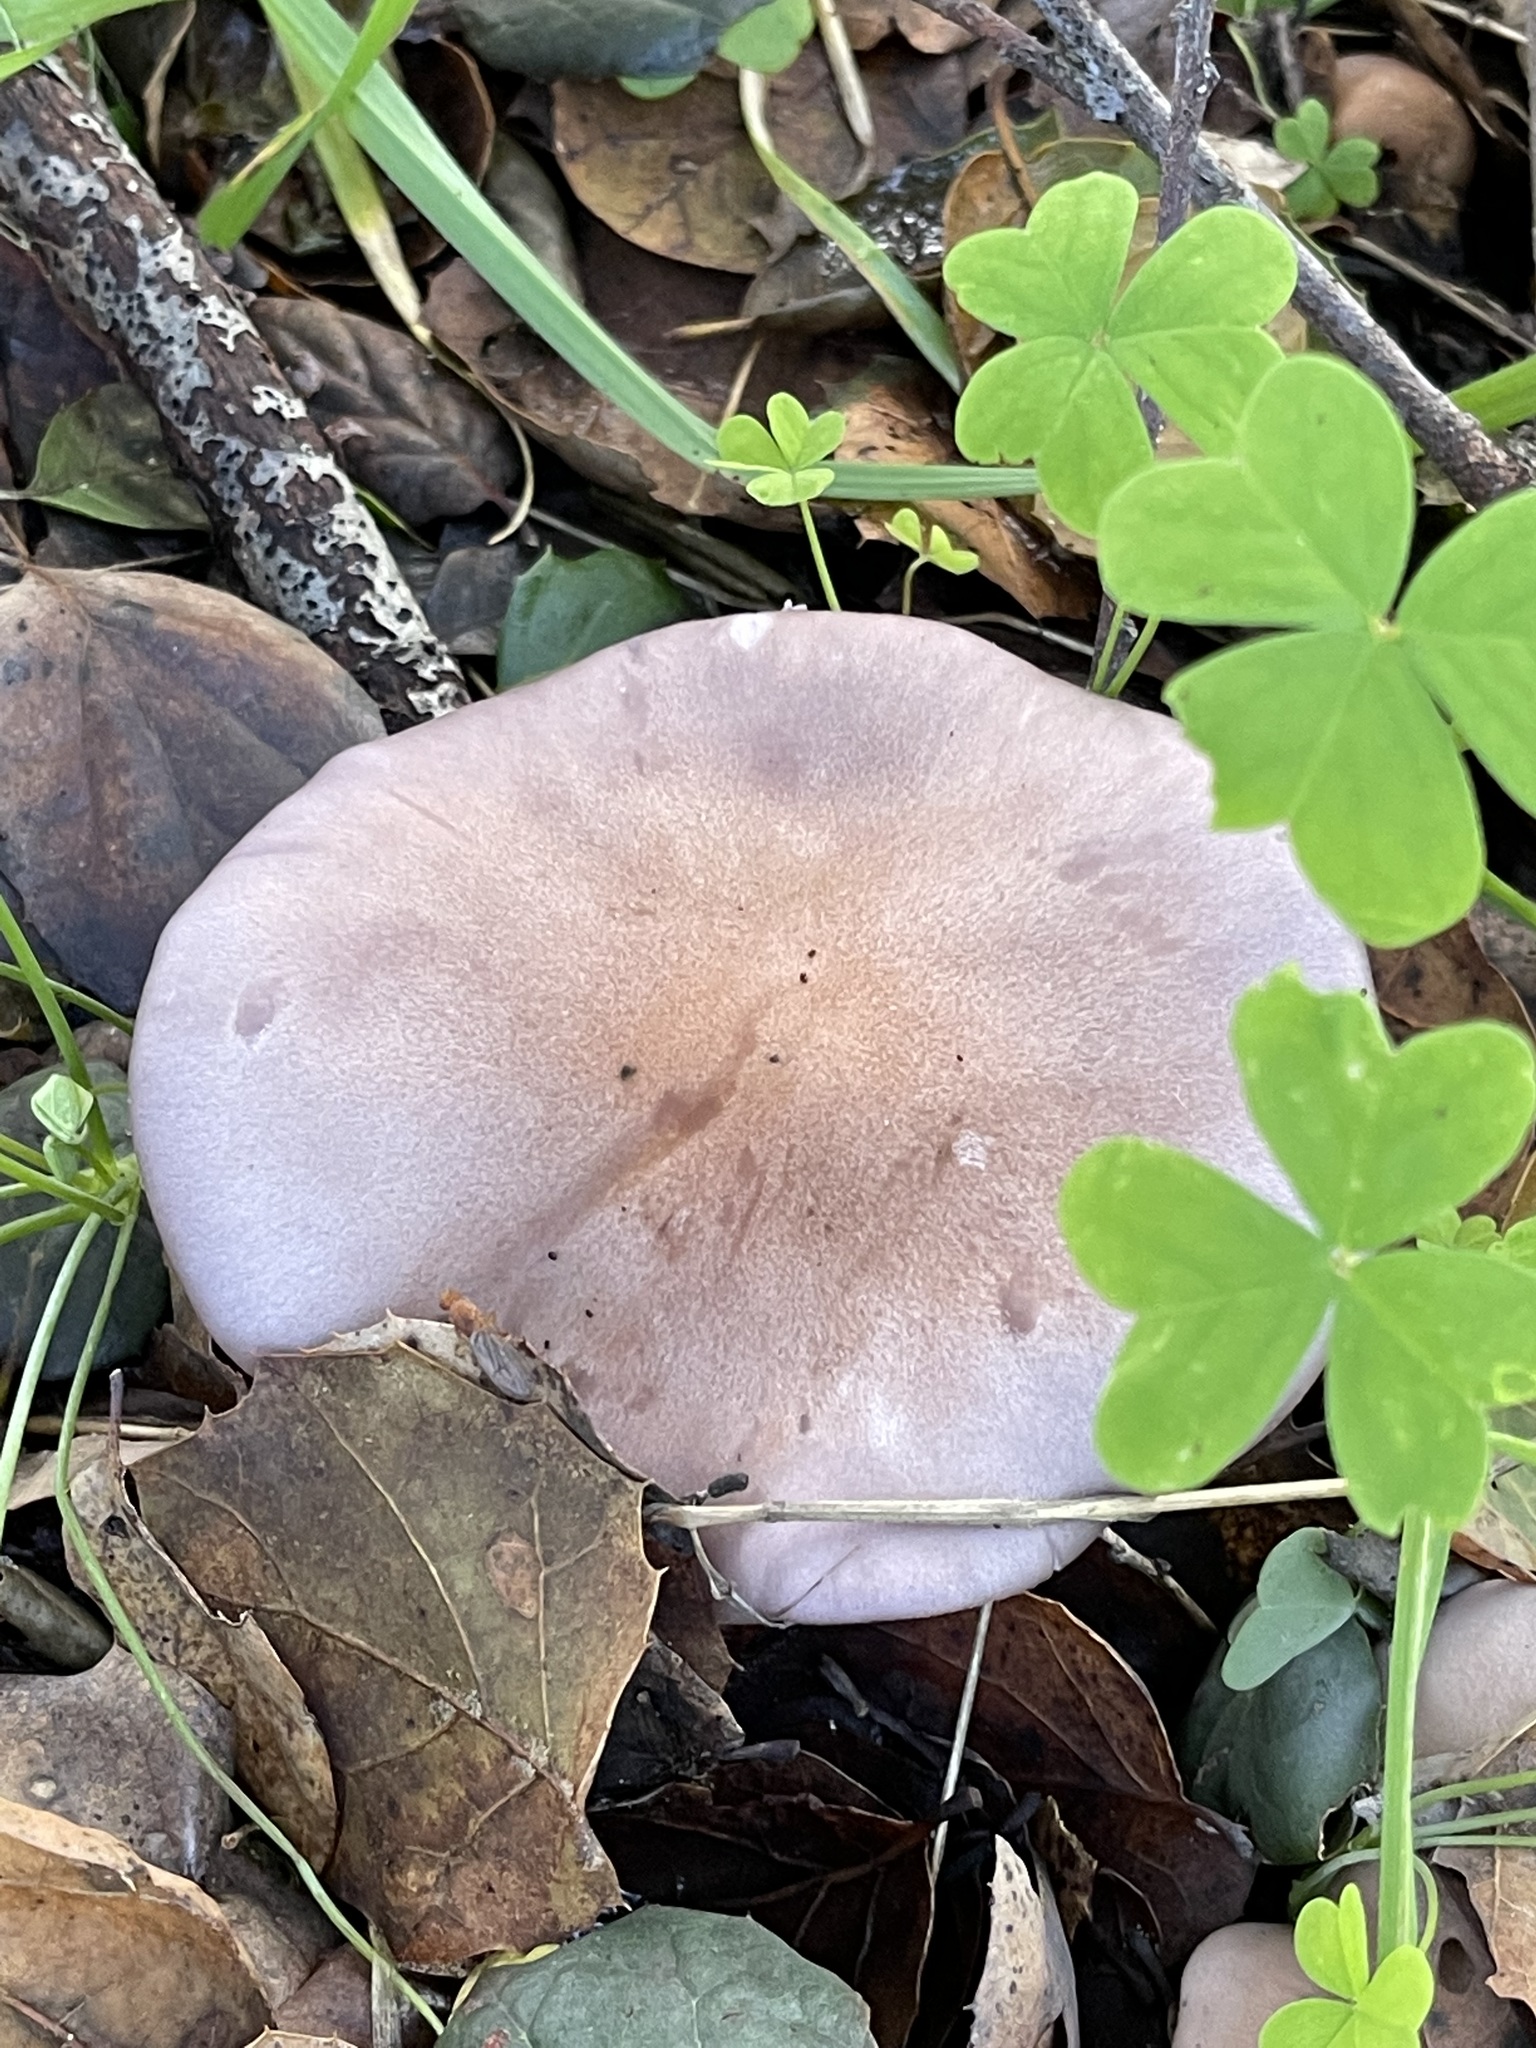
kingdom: Fungi
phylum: Basidiomycota
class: Agaricomycetes
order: Agaricales
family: Tricholomataceae
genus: Collybia
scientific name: Collybia
